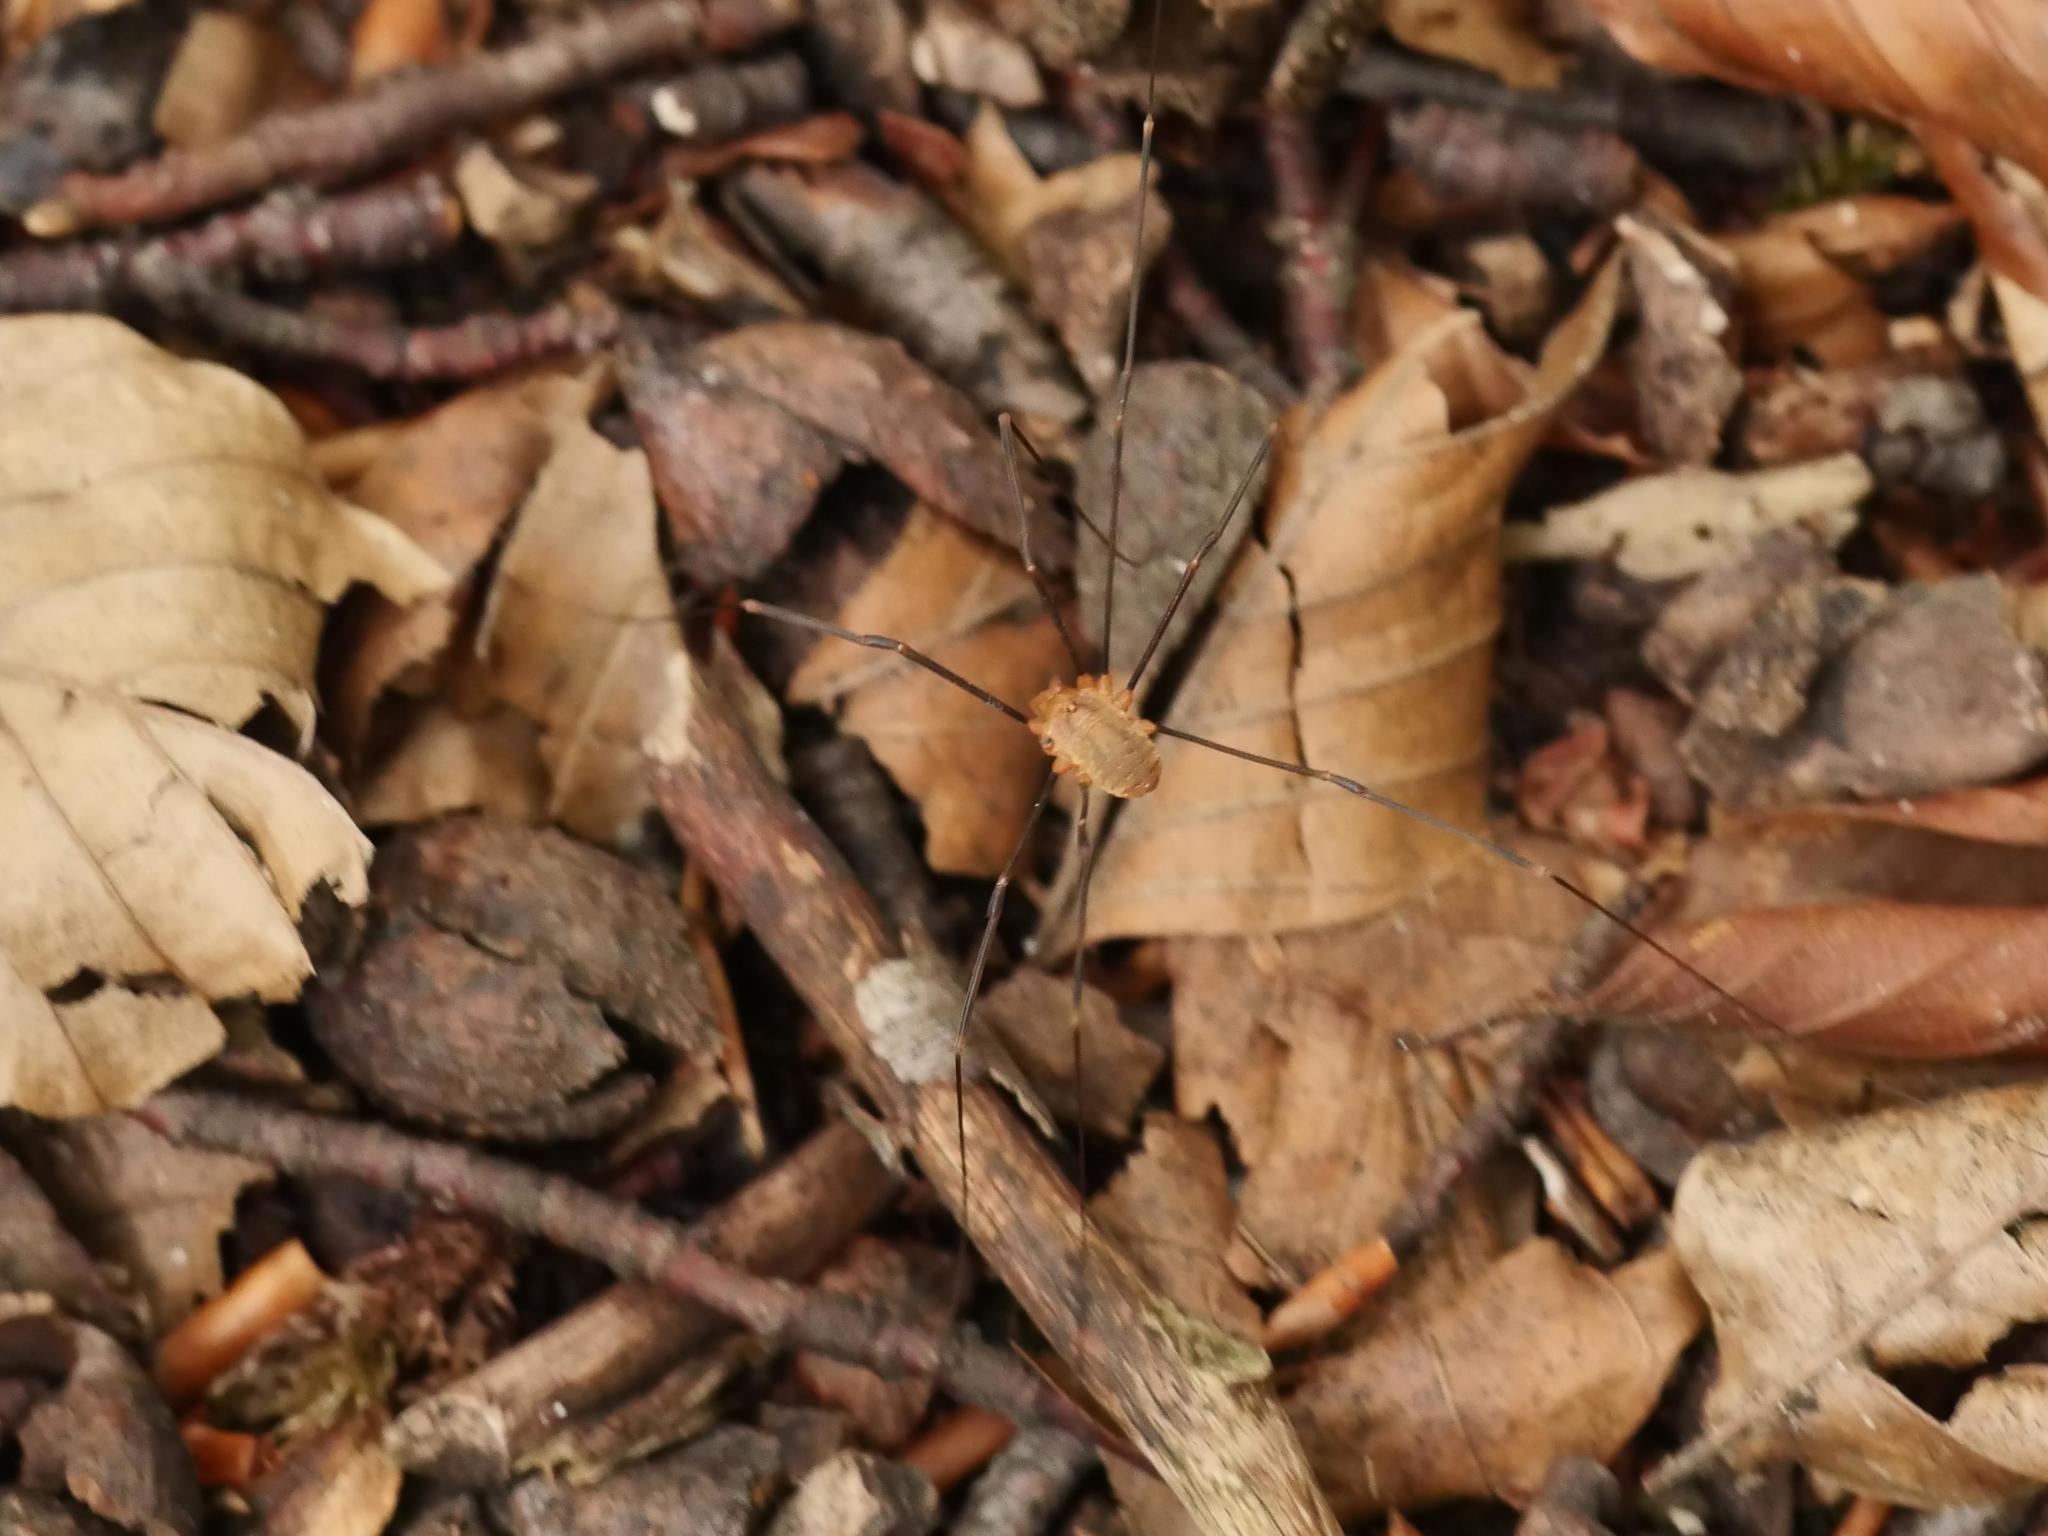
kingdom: Animalia
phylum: Arthropoda
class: Arachnida
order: Opiliones
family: Phalangiidae
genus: Opilio
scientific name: Opilio canestrinii
